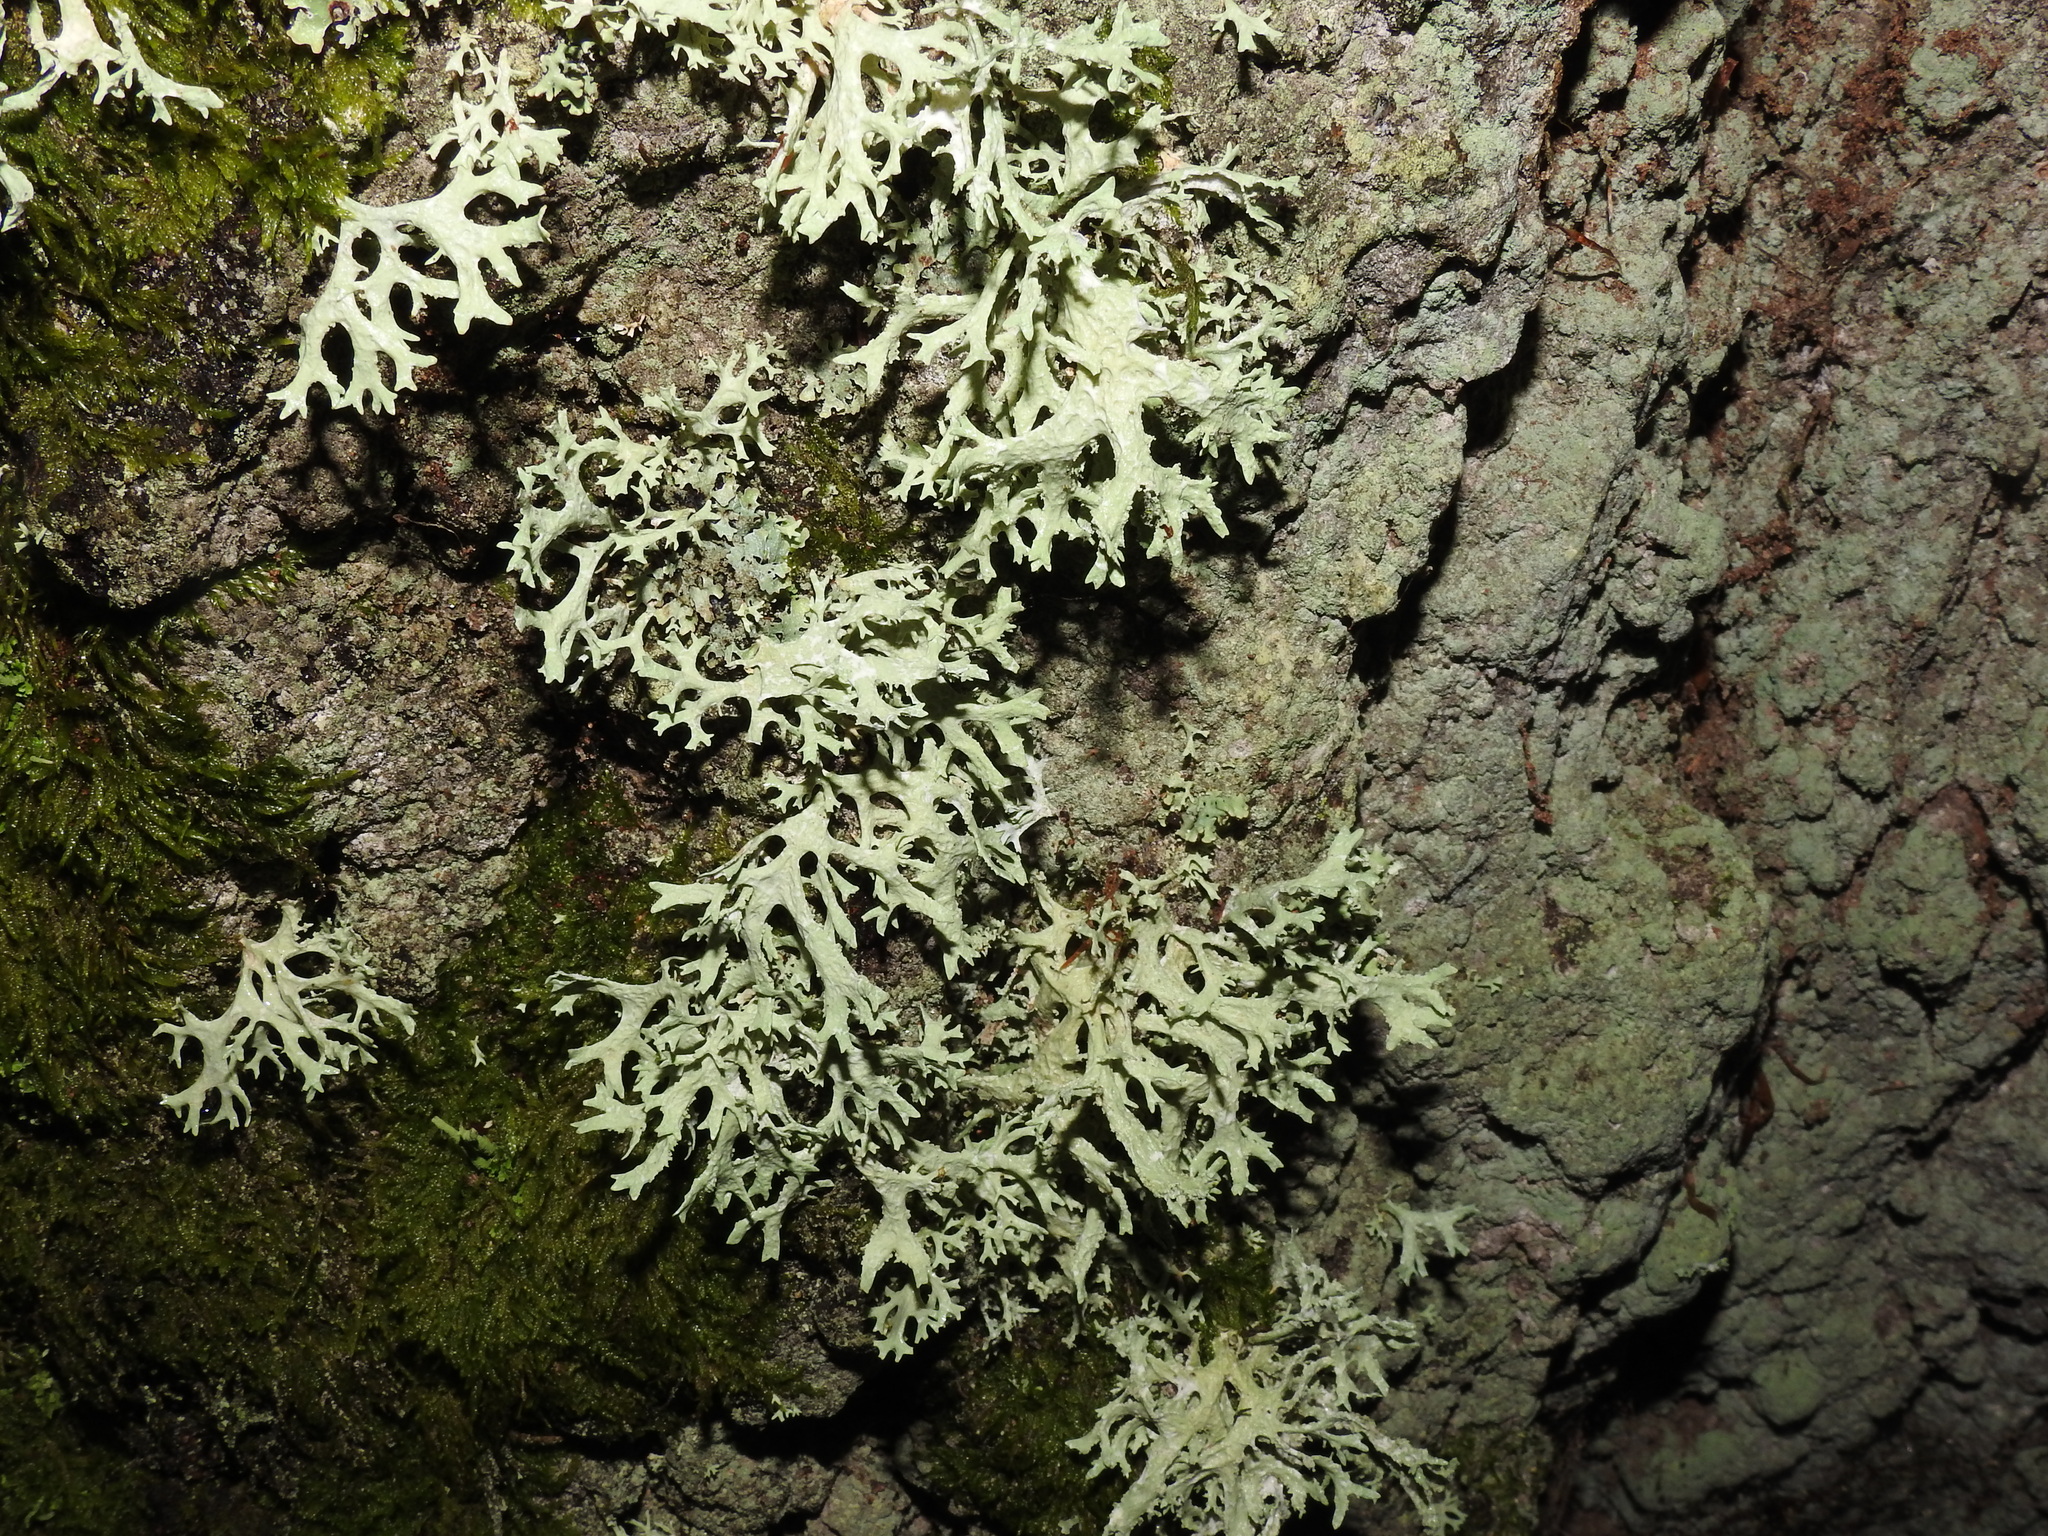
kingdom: Fungi
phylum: Ascomycota
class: Lecanoromycetes
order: Lecanorales
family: Parmeliaceae
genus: Evernia
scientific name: Evernia prunastri
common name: Oak moss
